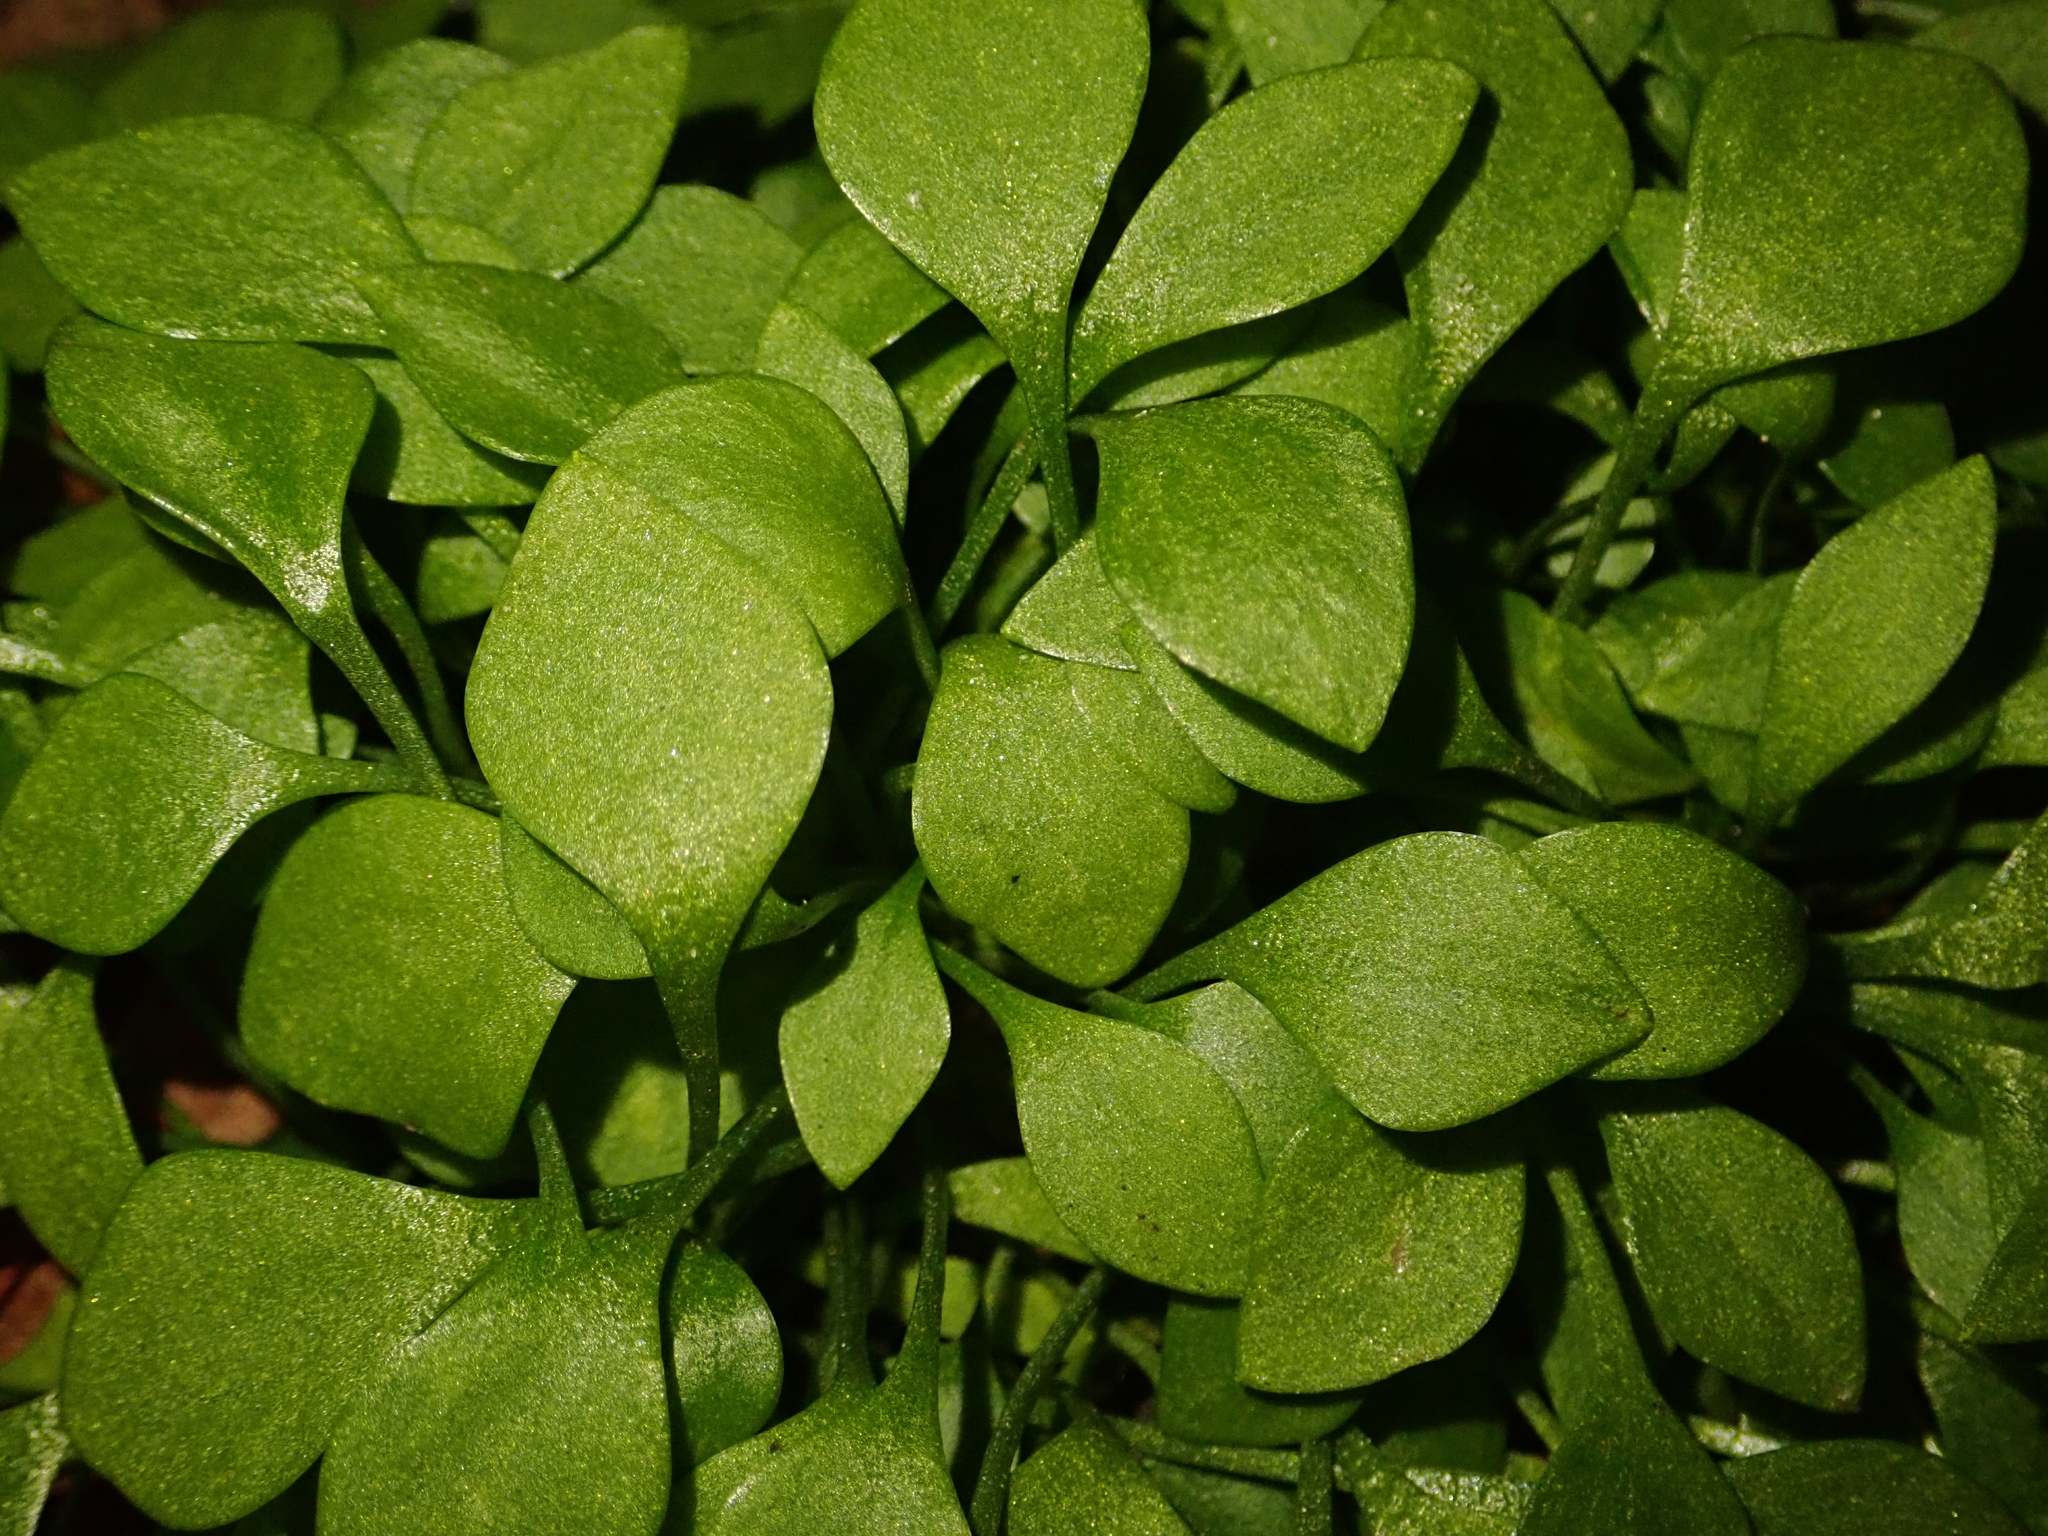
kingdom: Plantae
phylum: Tracheophyta
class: Magnoliopsida
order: Caryophyllales
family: Montiaceae
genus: Claytonia
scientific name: Claytonia perfoliata
